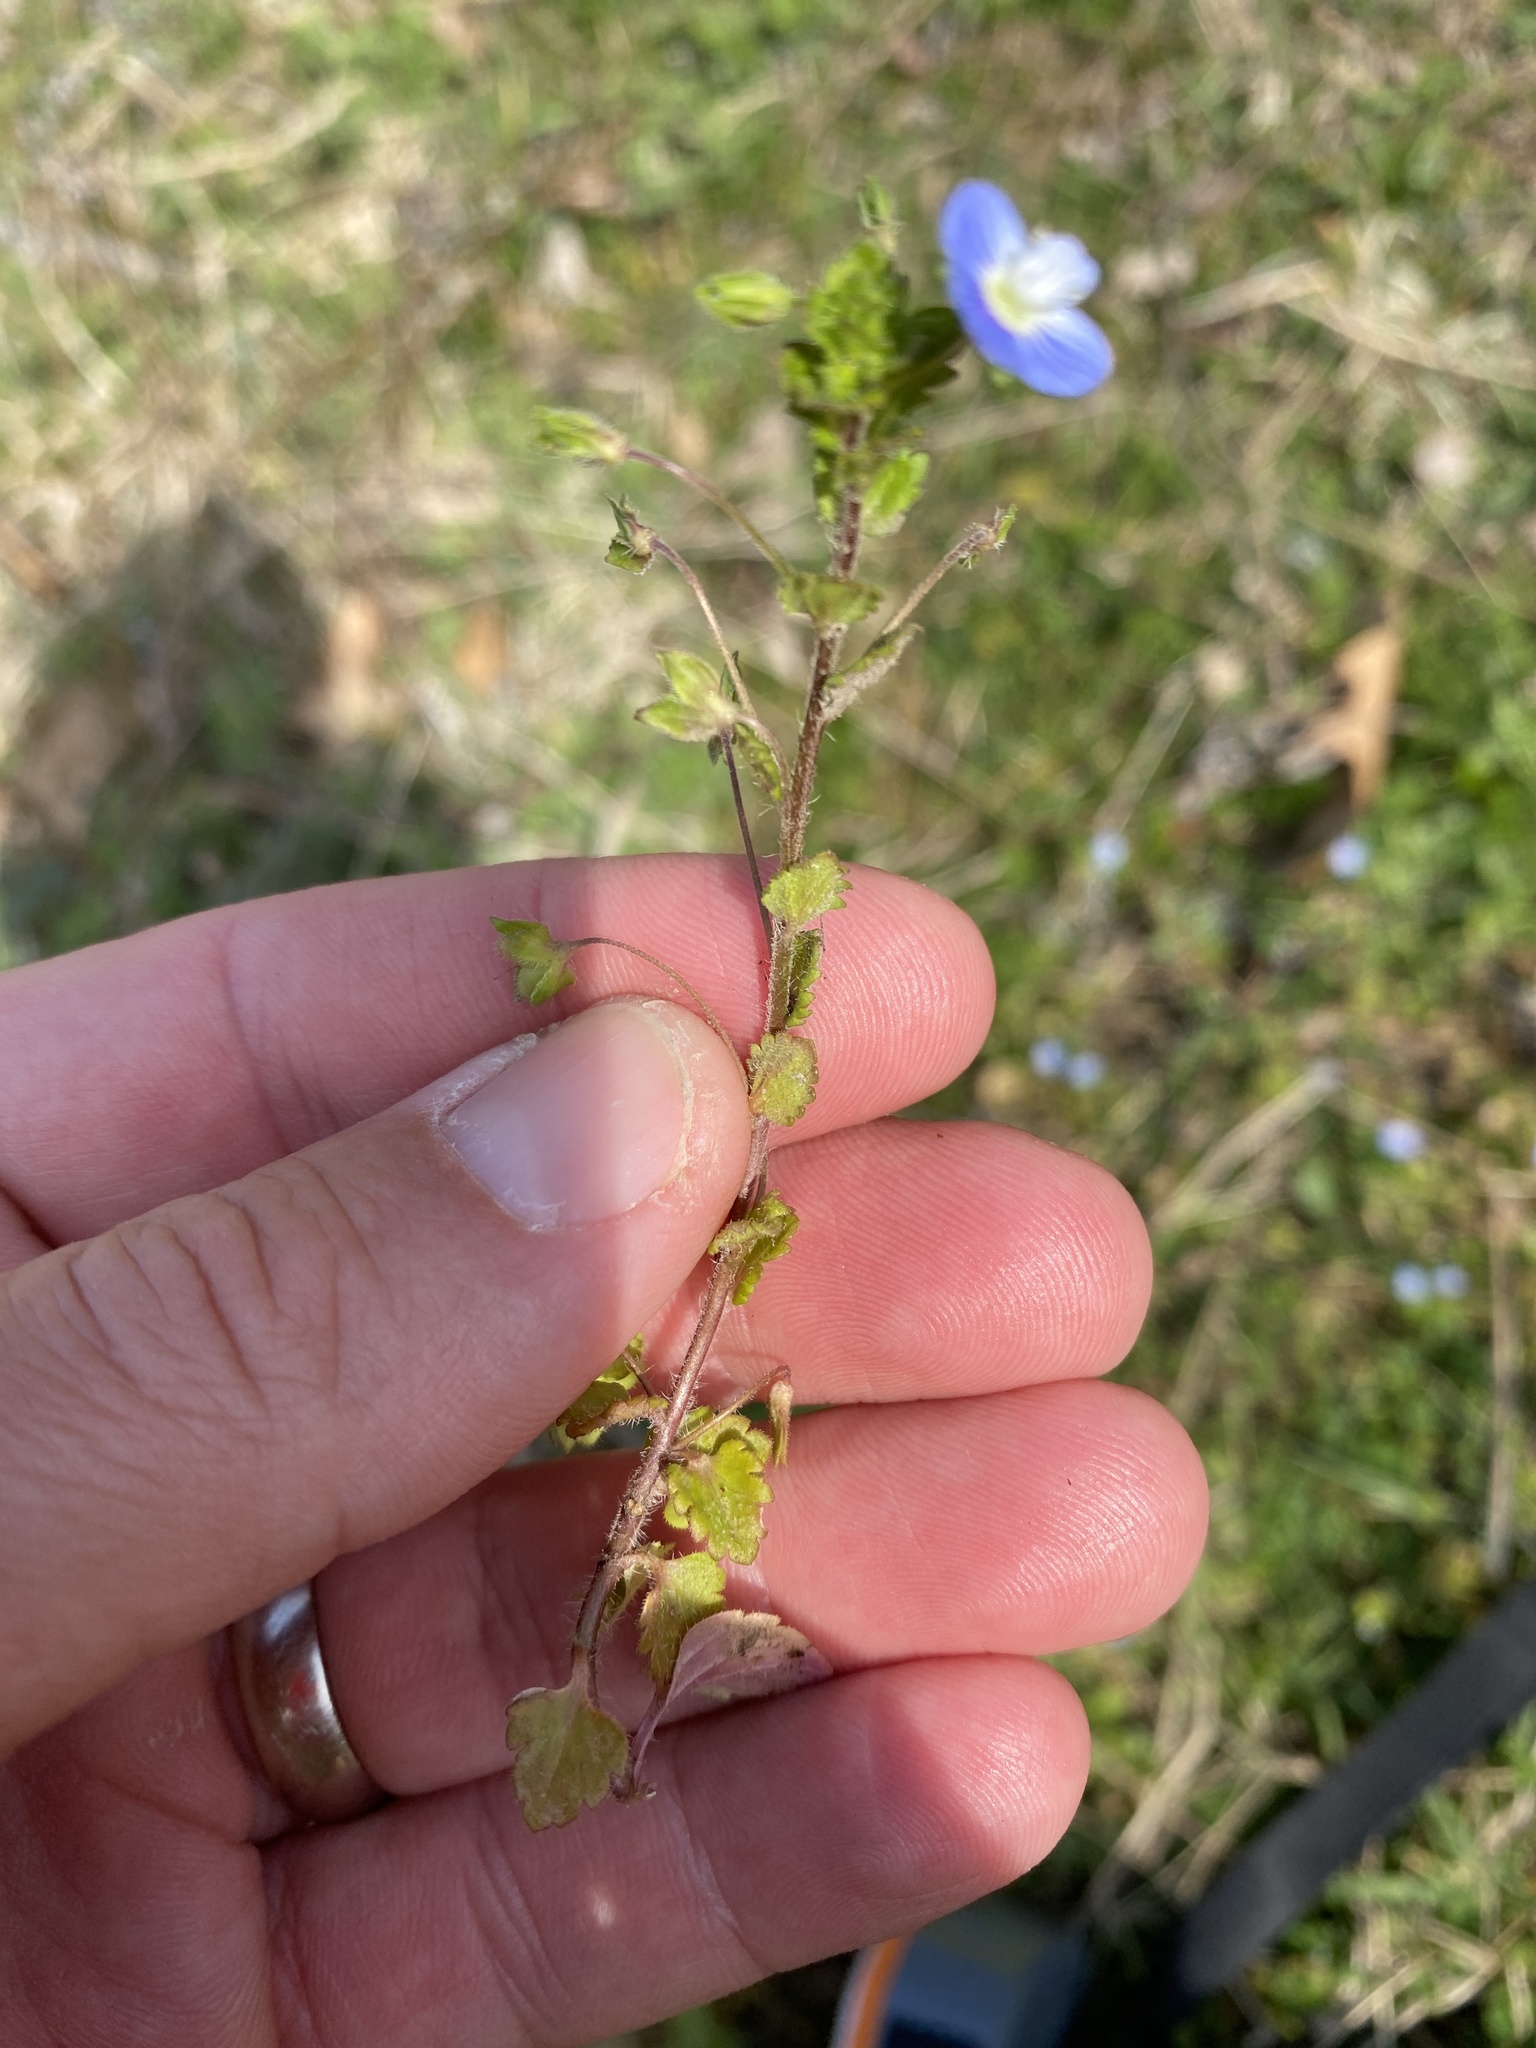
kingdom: Plantae
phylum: Tracheophyta
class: Magnoliopsida
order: Lamiales
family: Plantaginaceae
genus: Veronica
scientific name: Veronica persica
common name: Common field-speedwell
